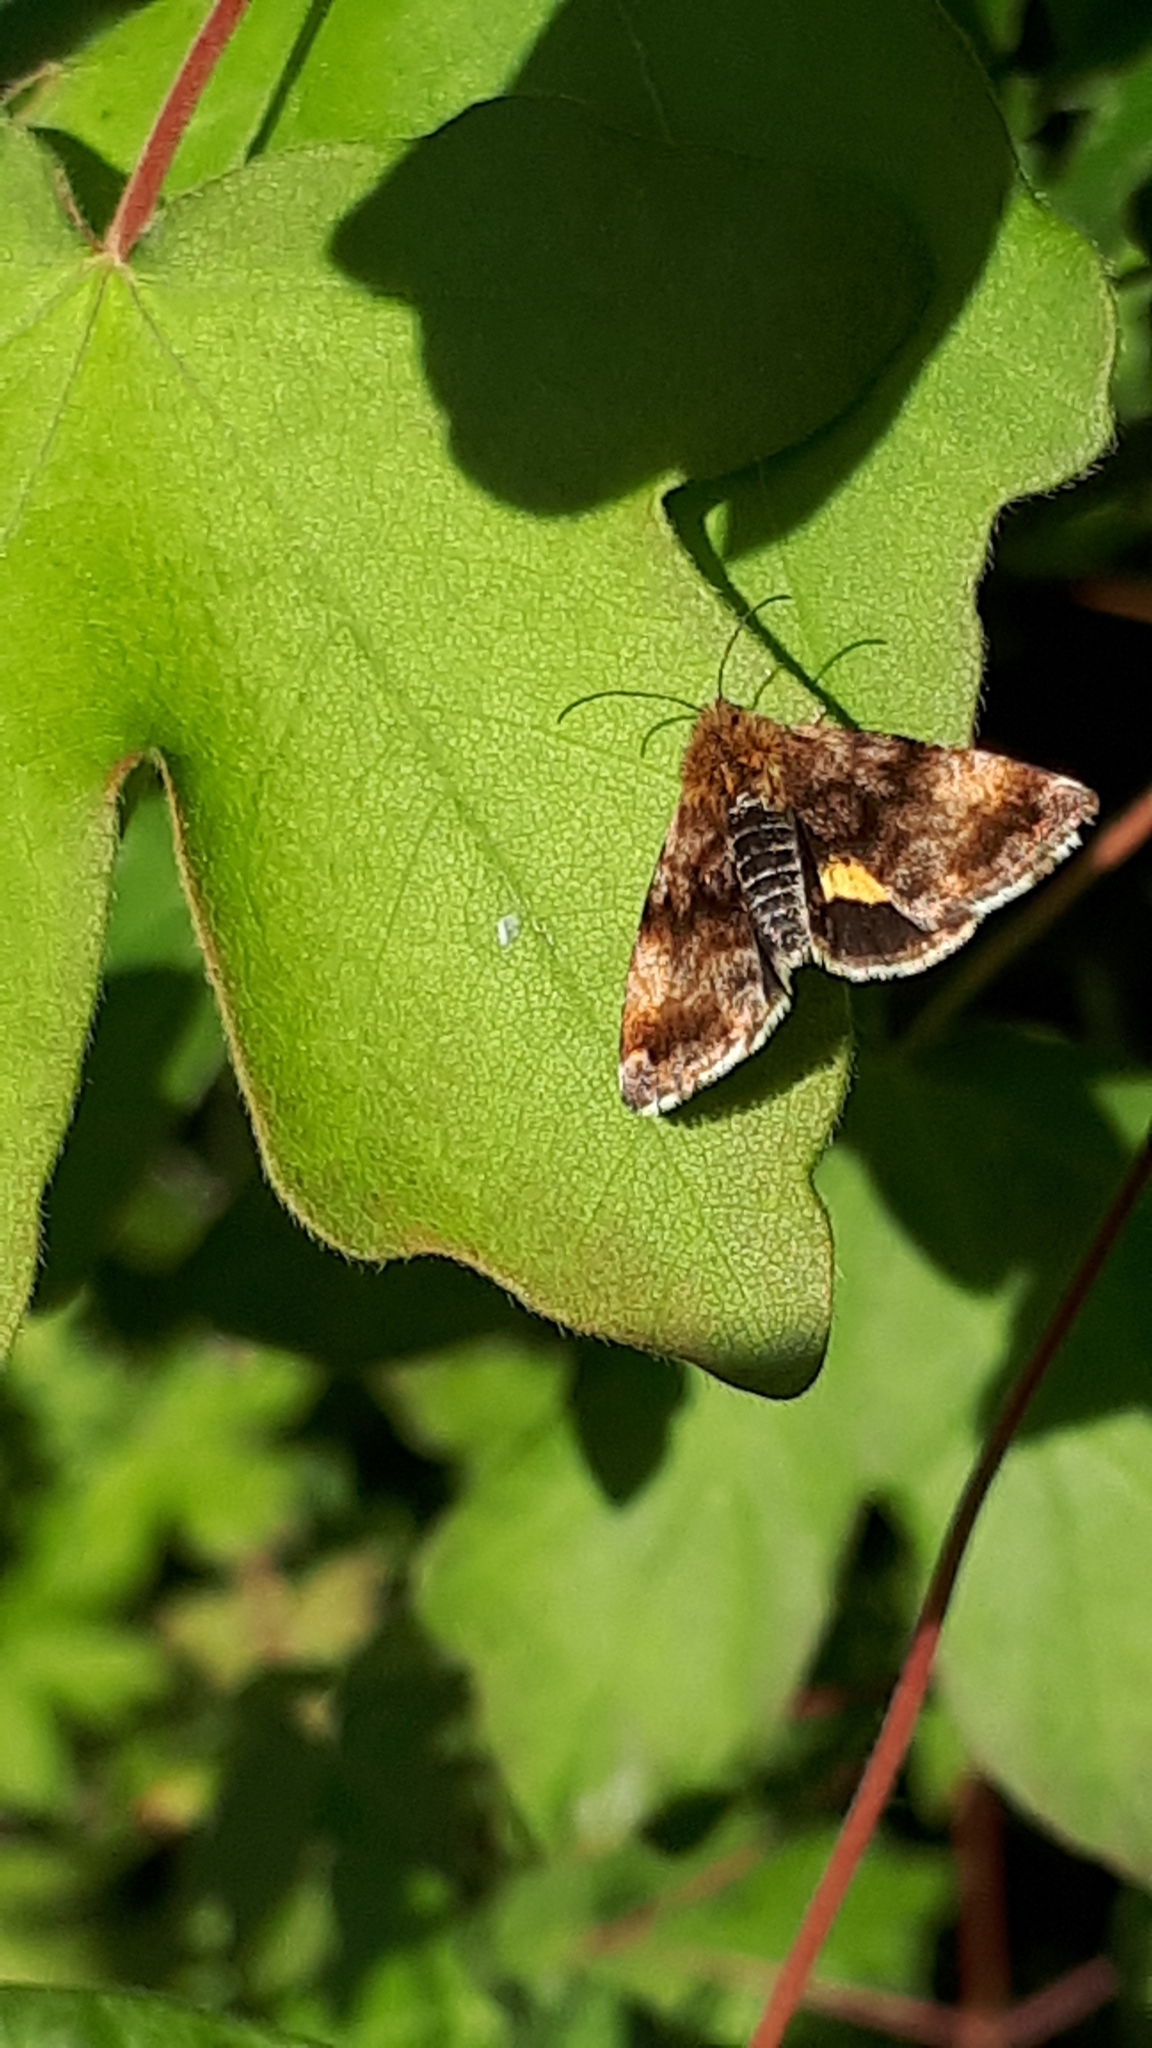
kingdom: Animalia
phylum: Arthropoda
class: Insecta
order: Lepidoptera
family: Noctuidae
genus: Panemeria
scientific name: Panemeria tenebrata
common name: Small yellow underwing
